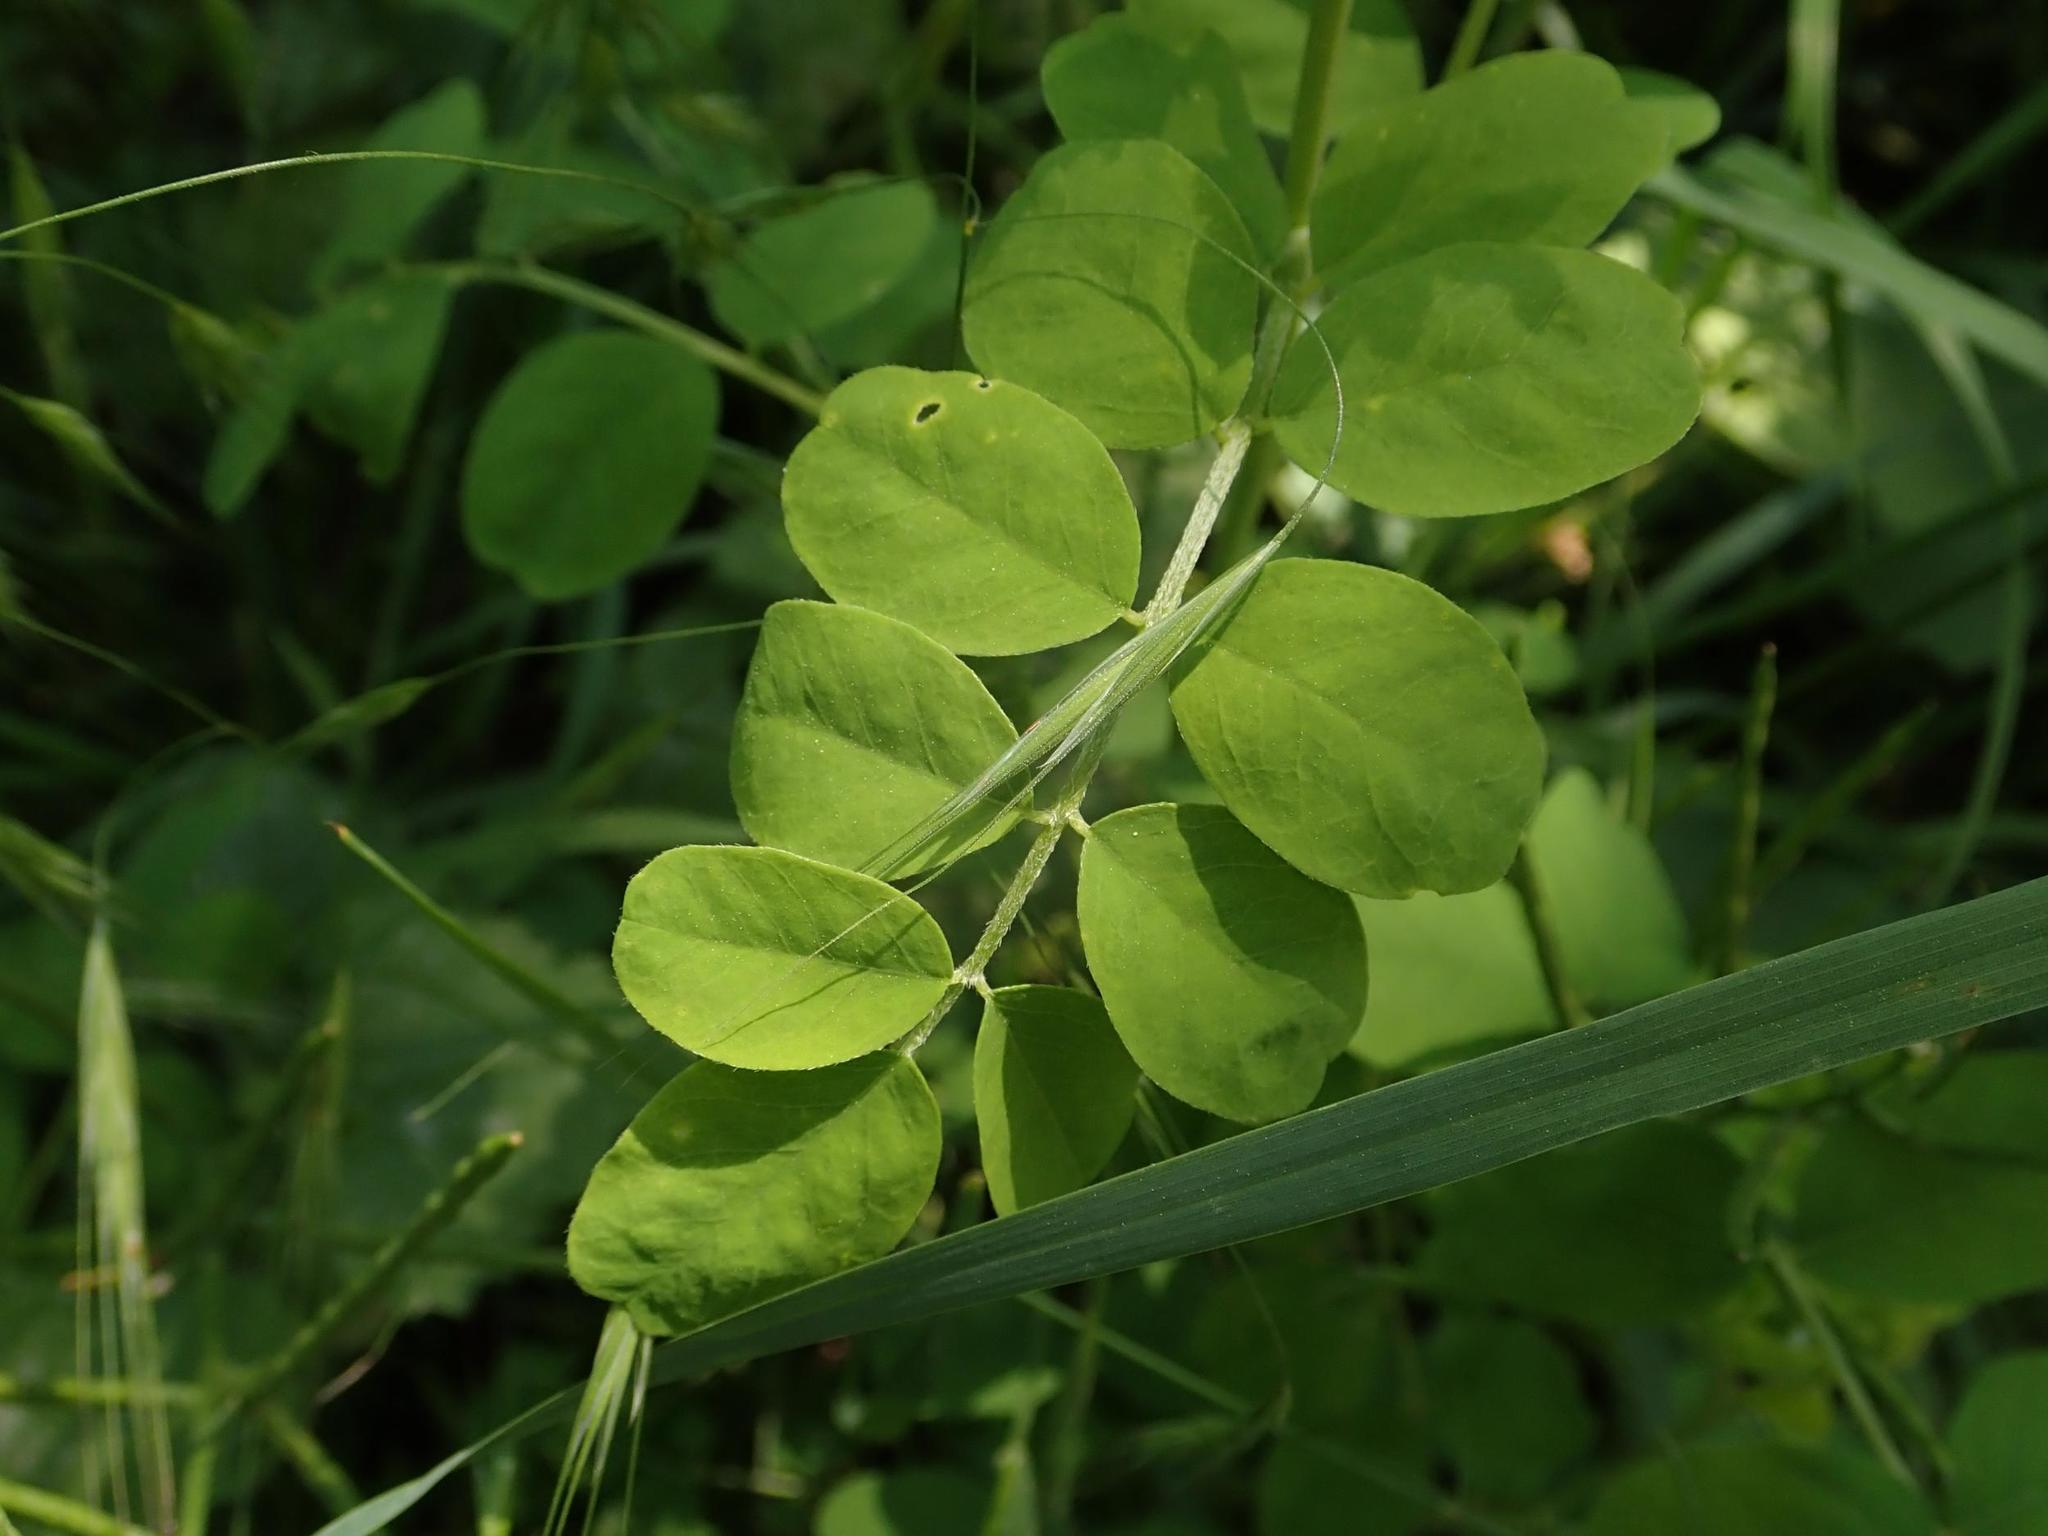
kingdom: Plantae
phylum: Tracheophyta
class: Magnoliopsida
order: Fabales
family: Fabaceae
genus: Robinia
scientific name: Robinia pseudoacacia
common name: Black locust
